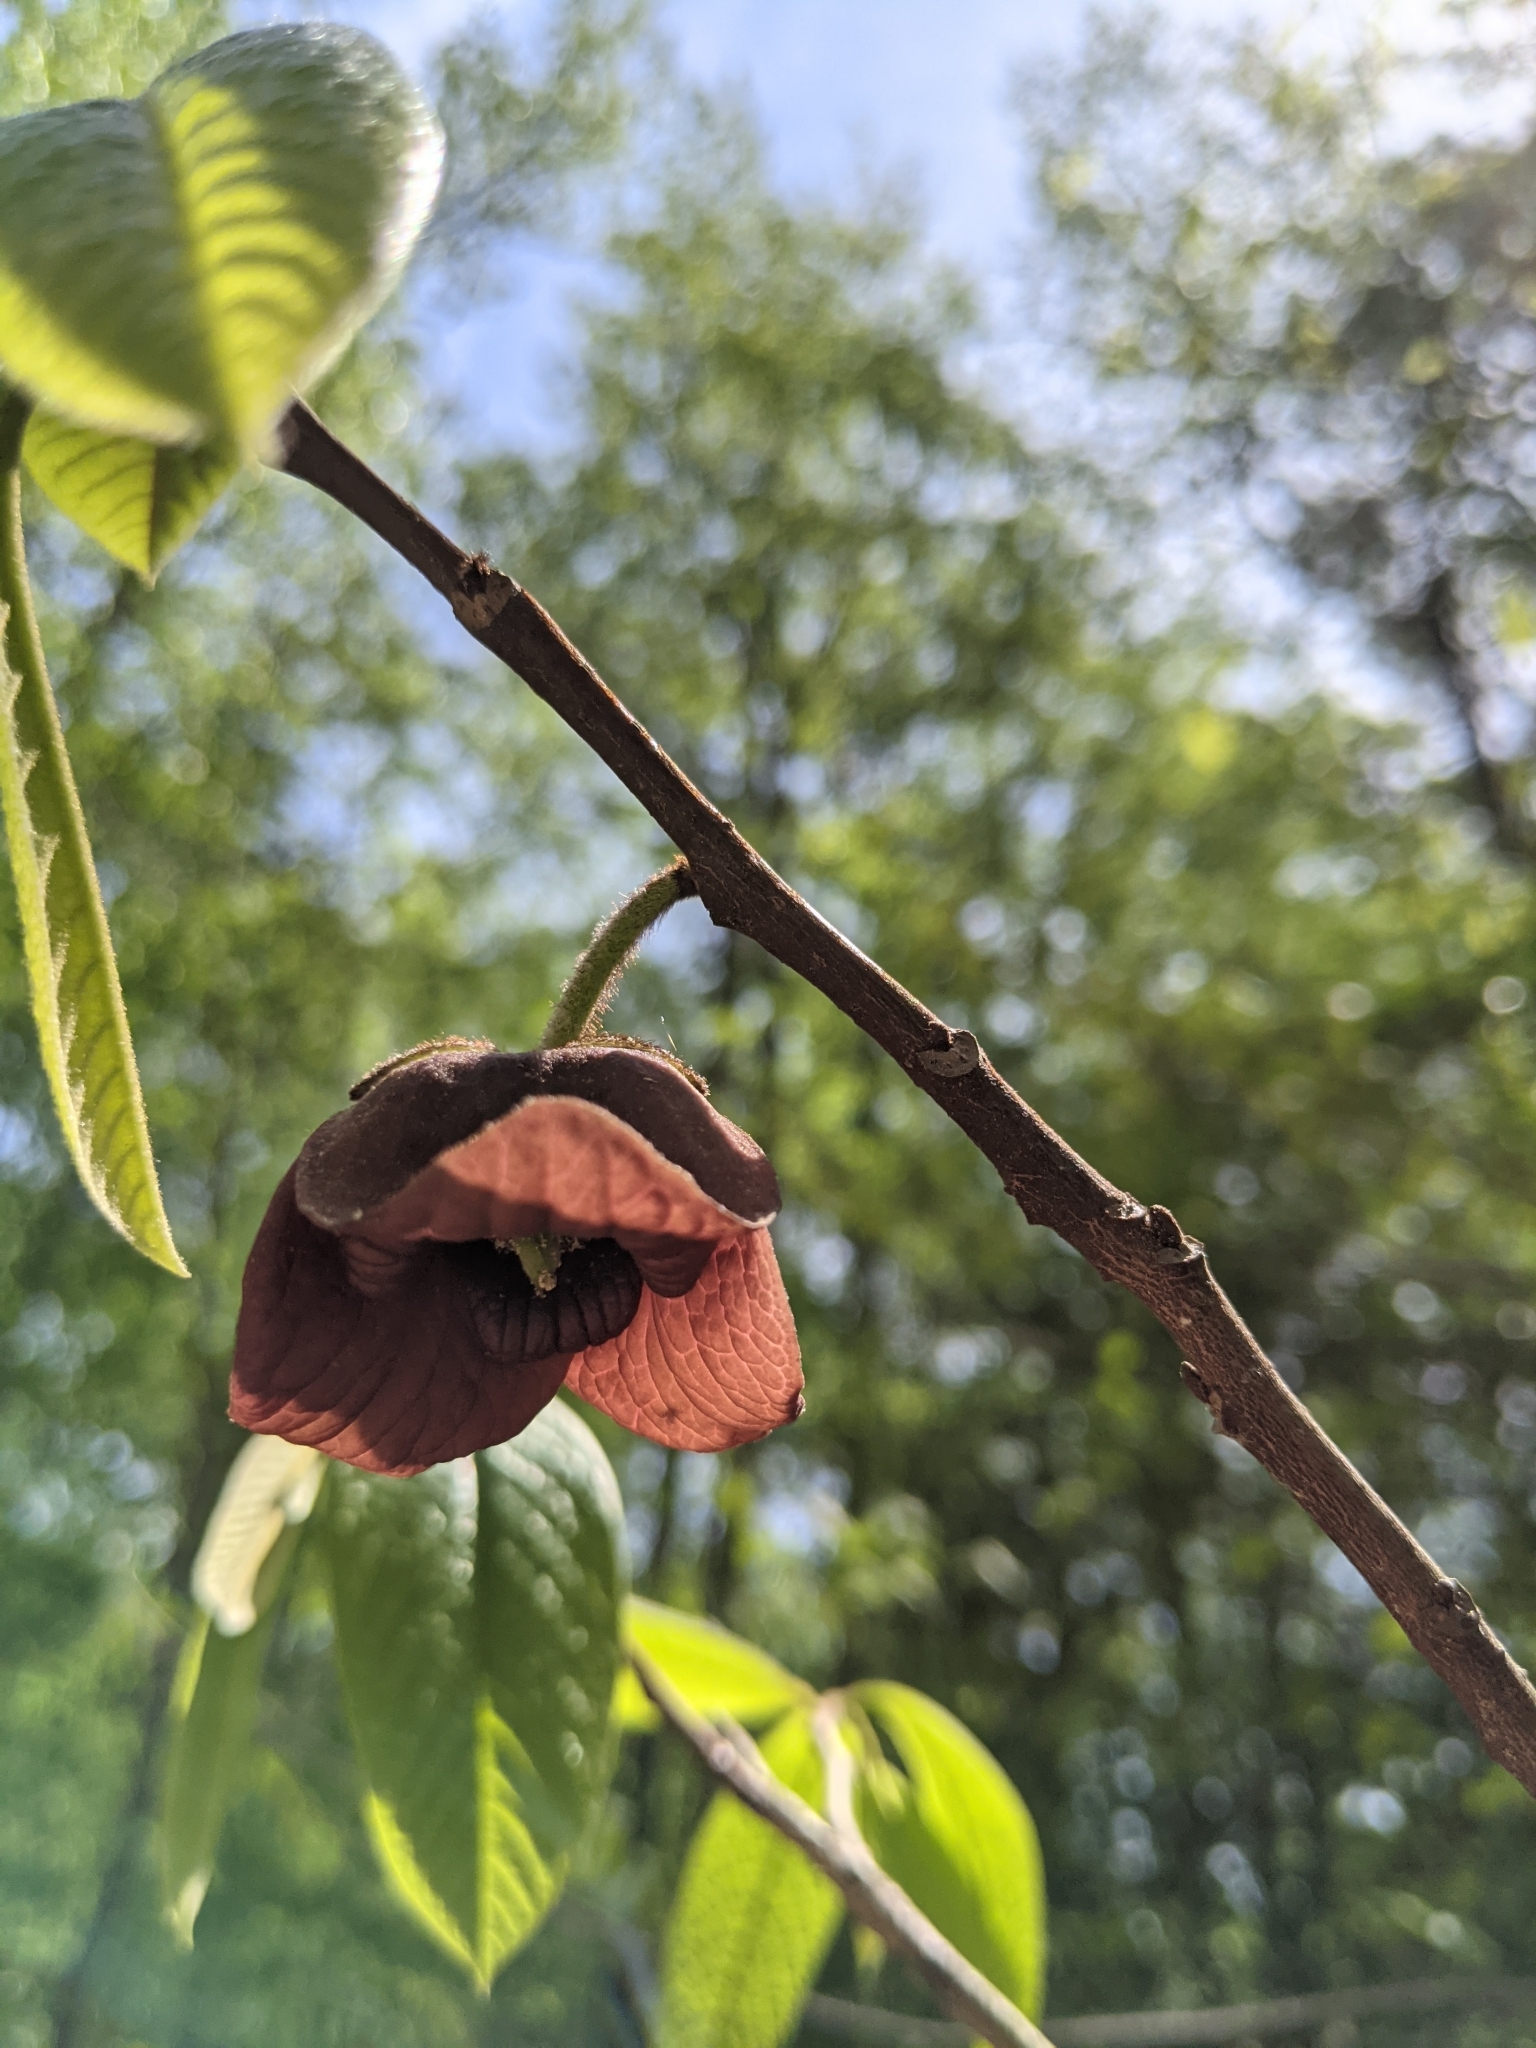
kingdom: Plantae
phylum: Tracheophyta
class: Magnoliopsida
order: Magnoliales
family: Annonaceae
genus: Asimina
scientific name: Asimina triloba
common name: Dog-banana
